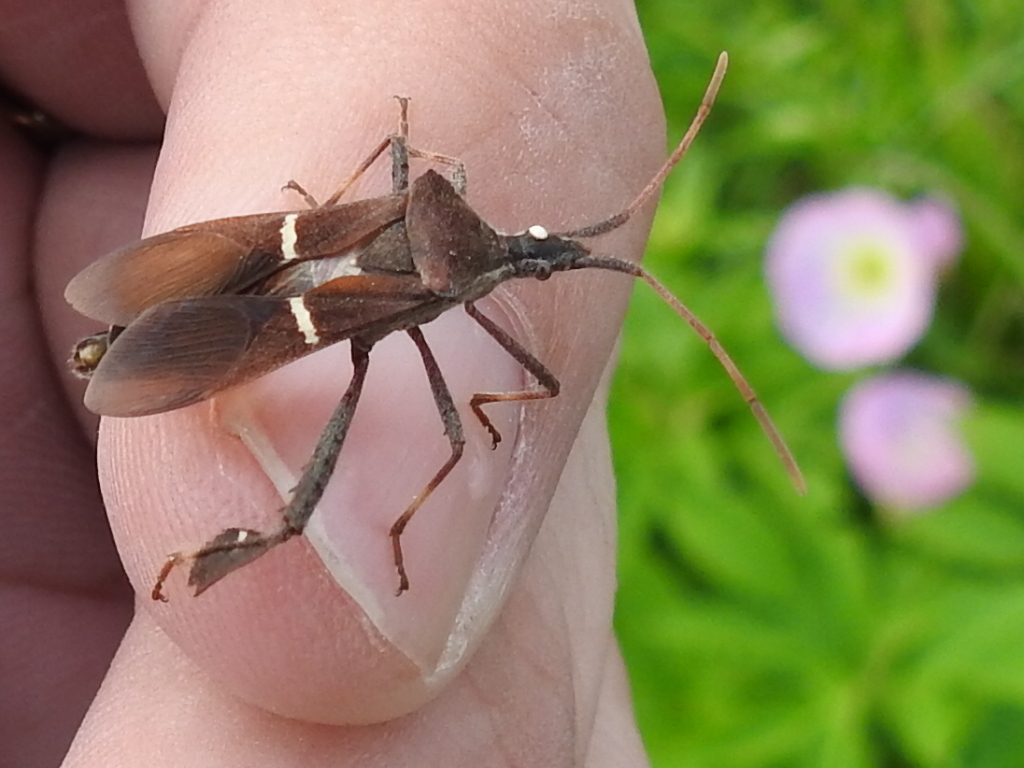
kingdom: Animalia
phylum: Arthropoda
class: Insecta
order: Hemiptera
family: Coreidae
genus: Leptoglossus
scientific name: Leptoglossus phyllopus
